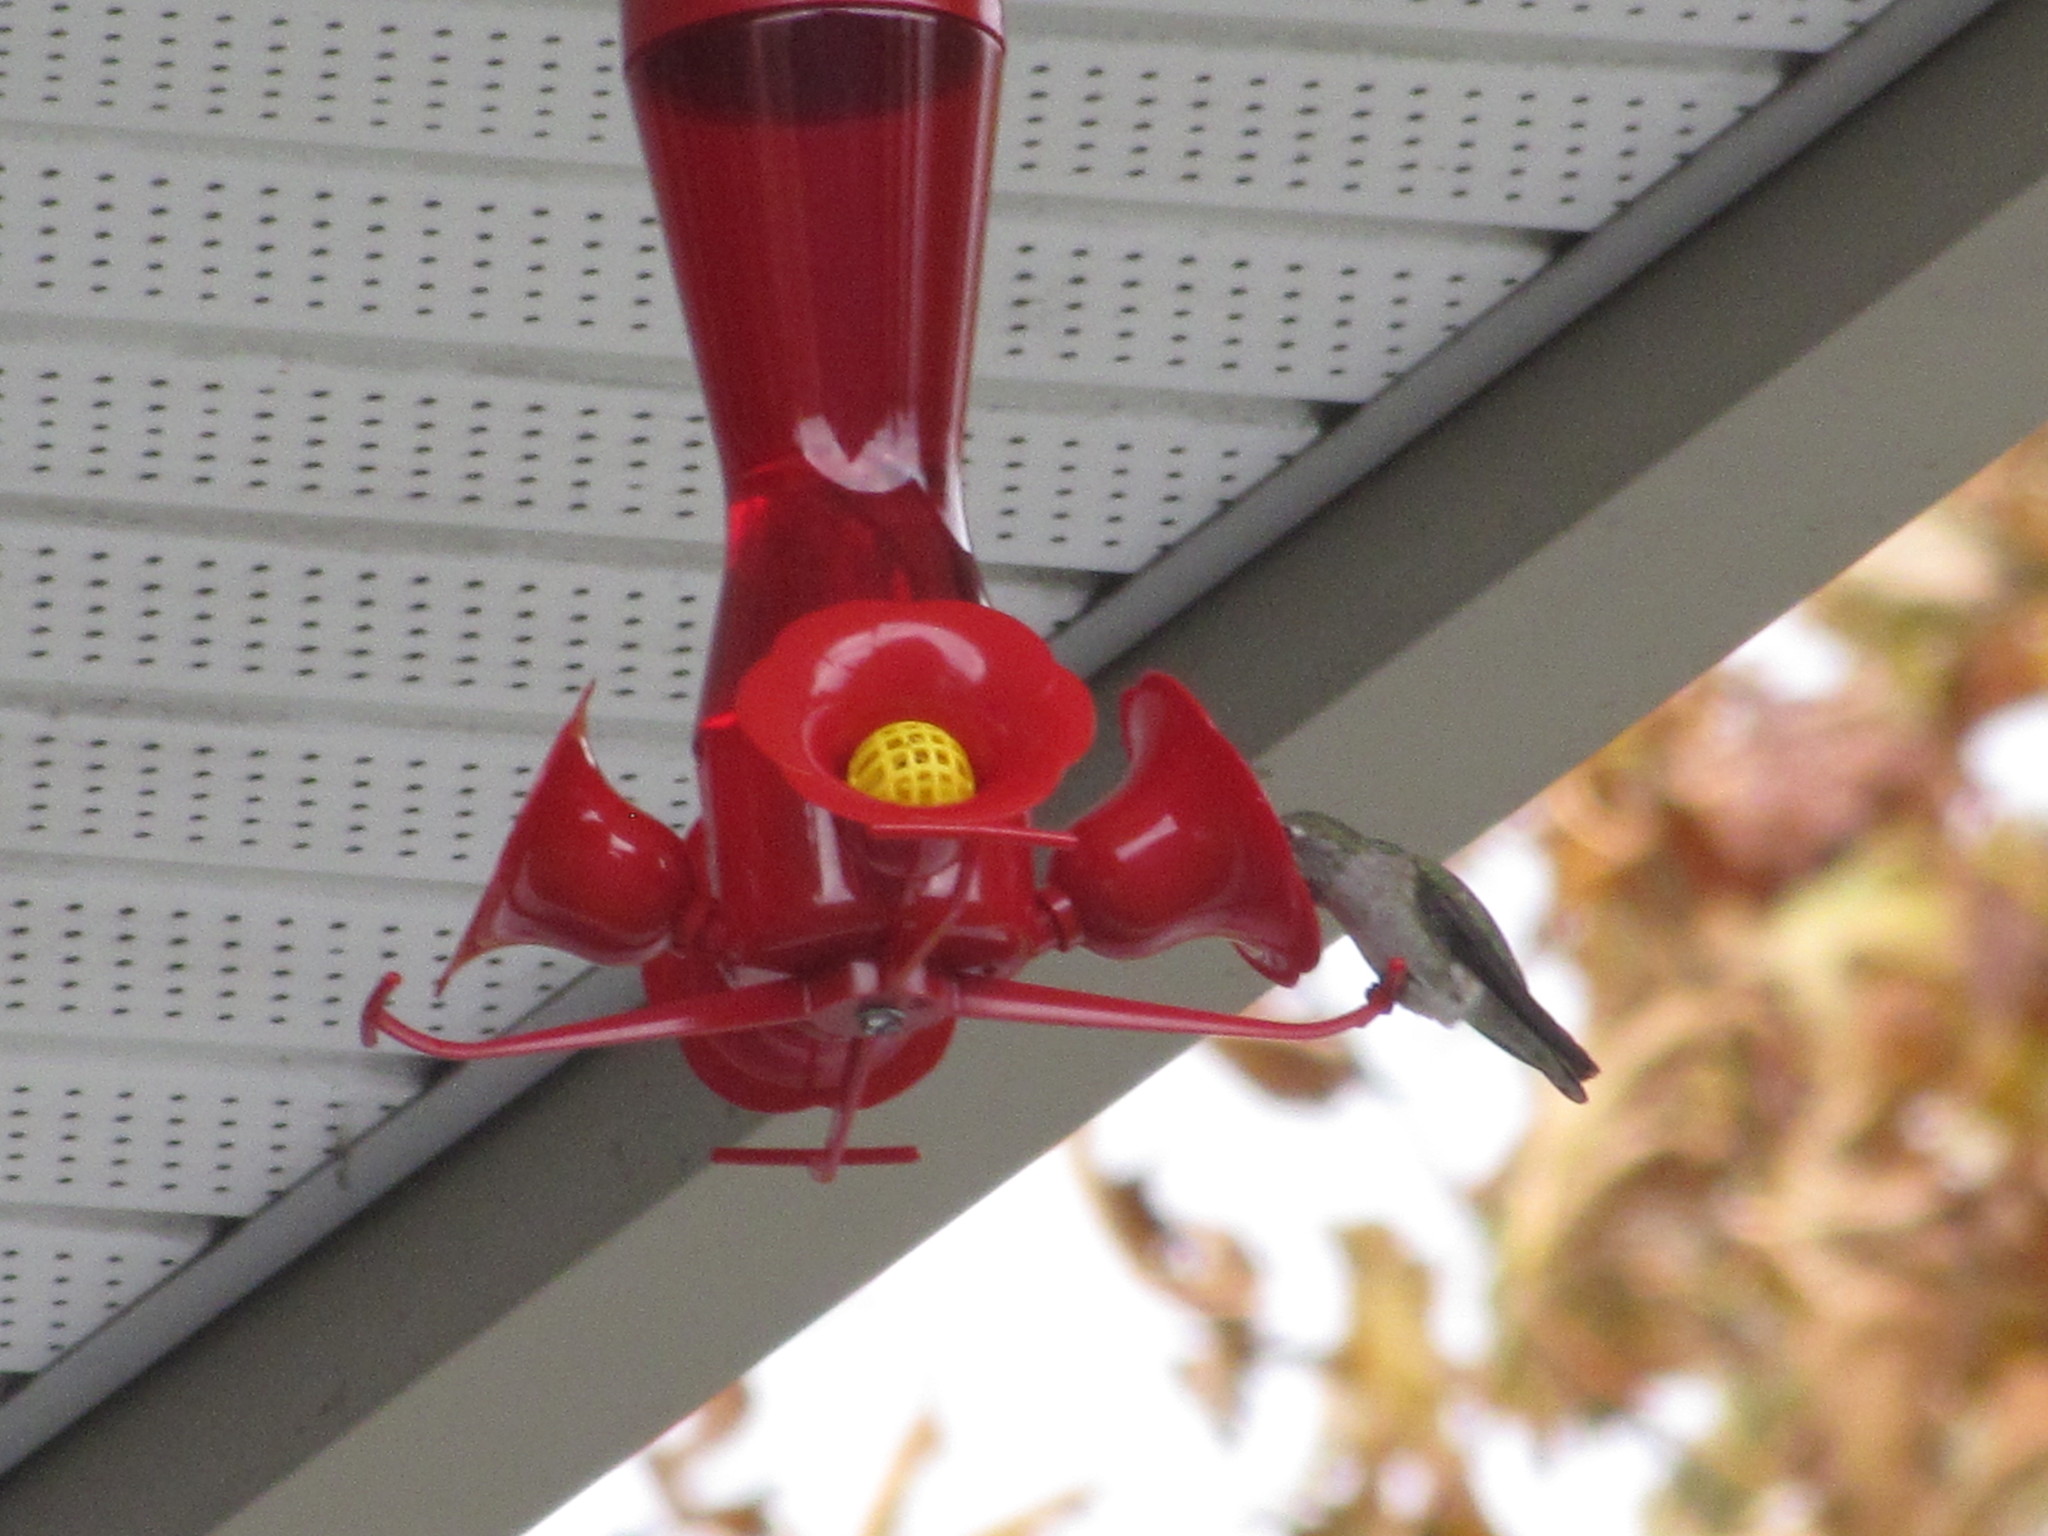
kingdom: Animalia
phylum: Chordata
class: Aves
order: Apodiformes
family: Trochilidae
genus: Calypte
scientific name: Calypte anna
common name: Anna's hummingbird
